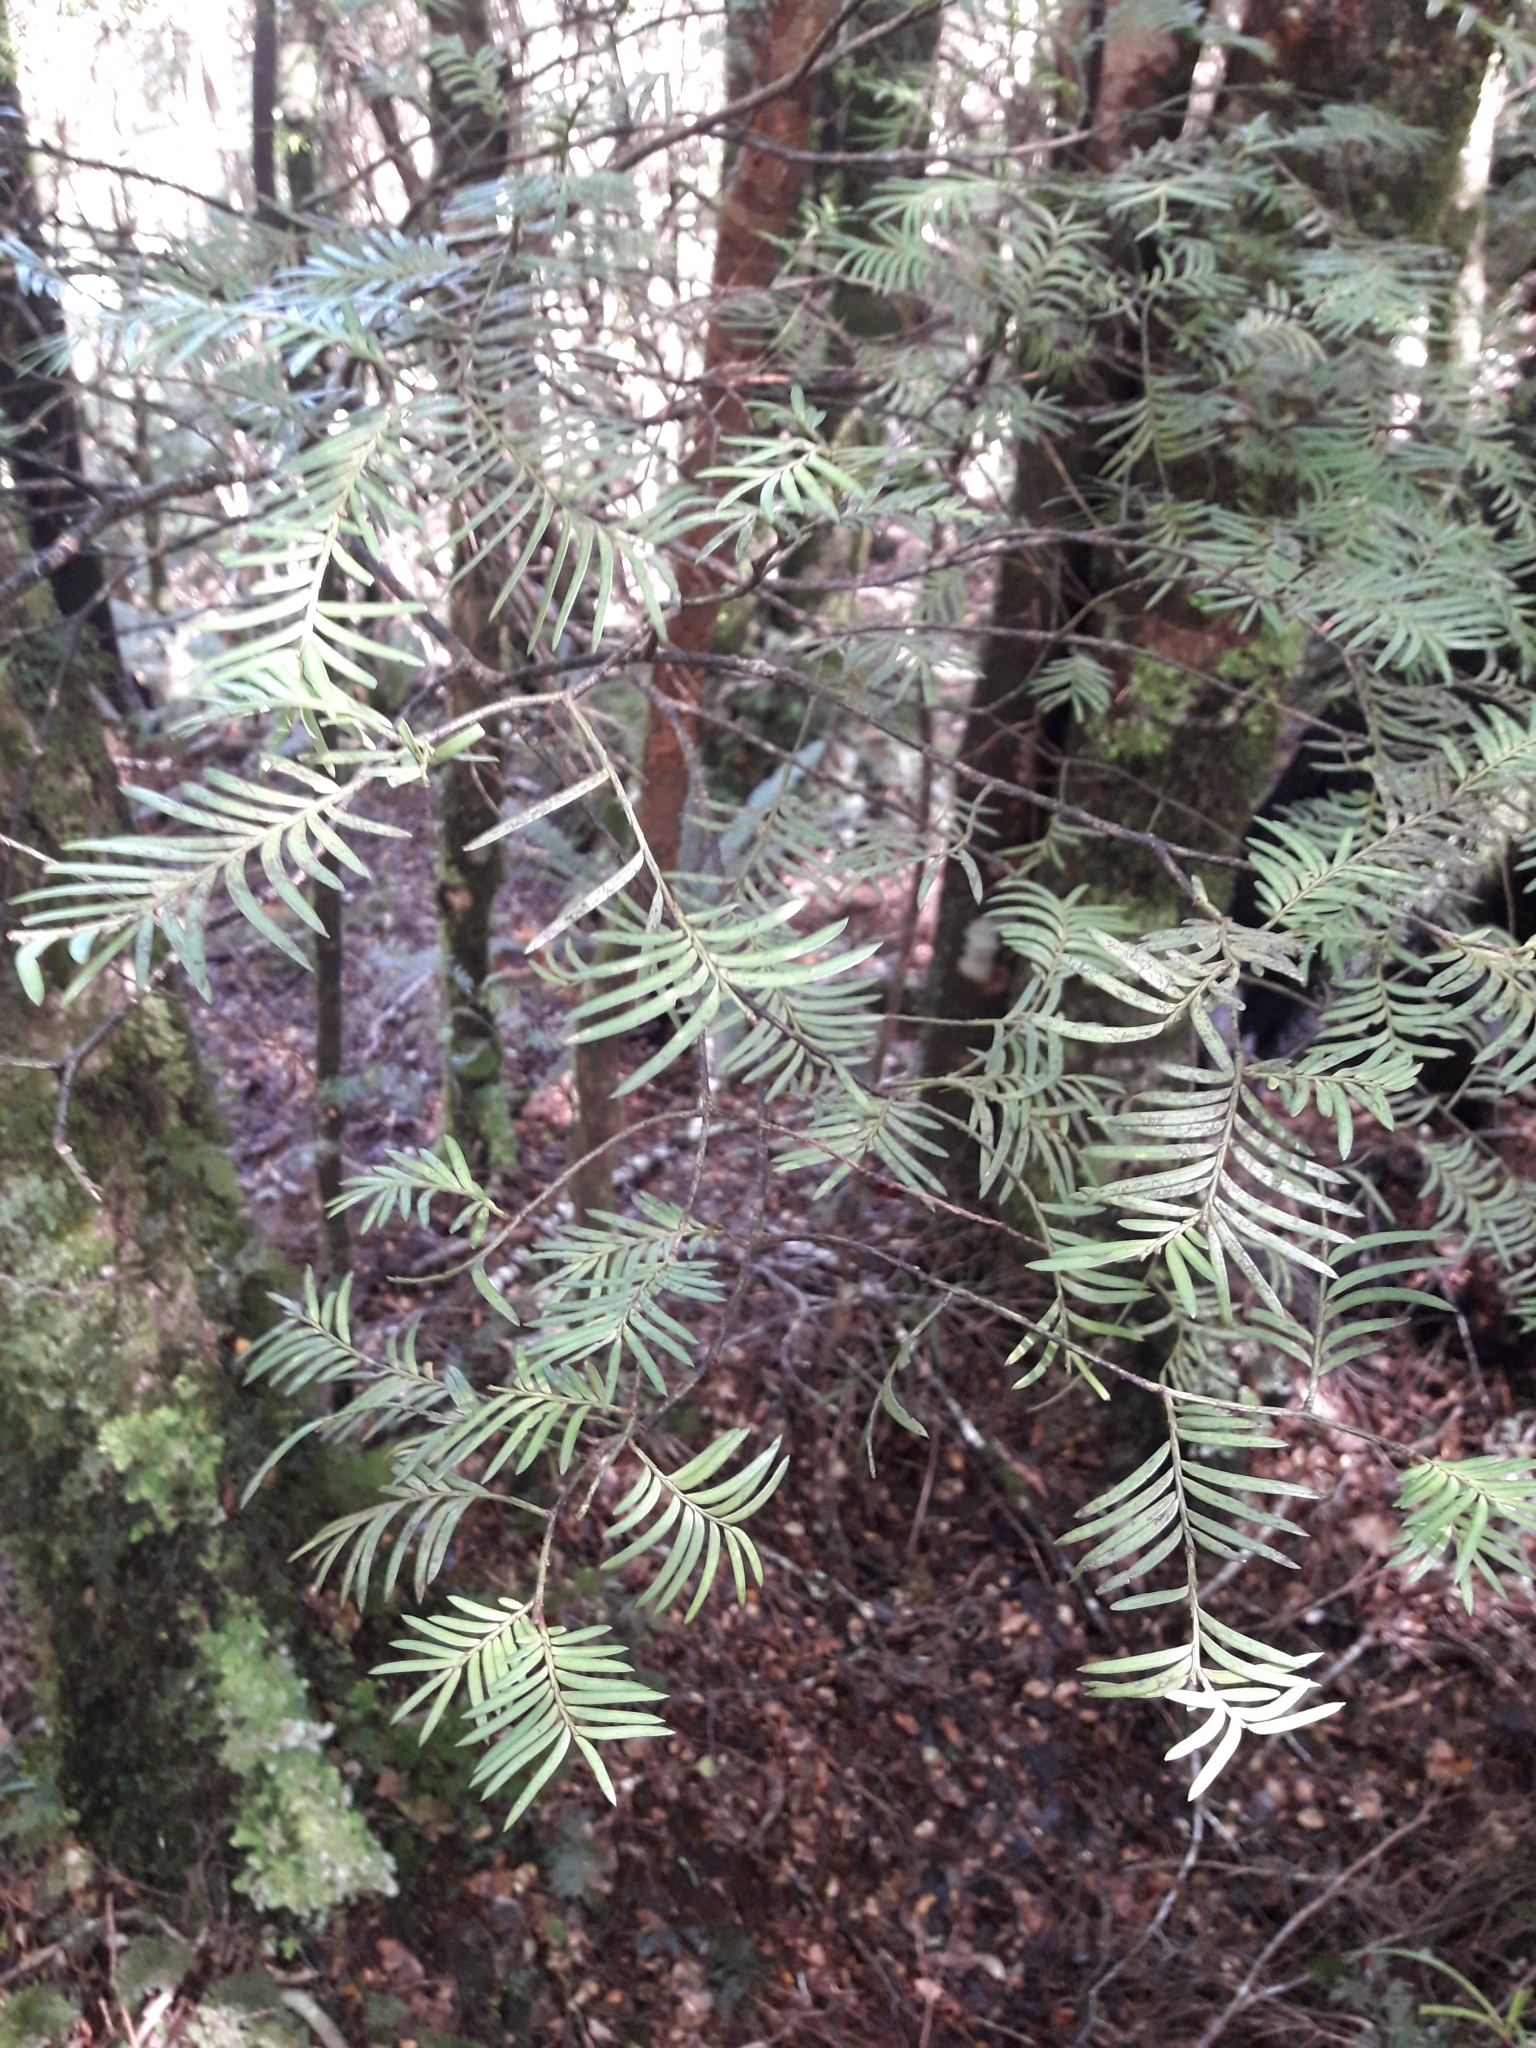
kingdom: Plantae
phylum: Tracheophyta
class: Pinopsida
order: Pinales
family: Podocarpaceae
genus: Prumnopitys
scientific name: Prumnopitys ferruginea
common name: Brown pine
